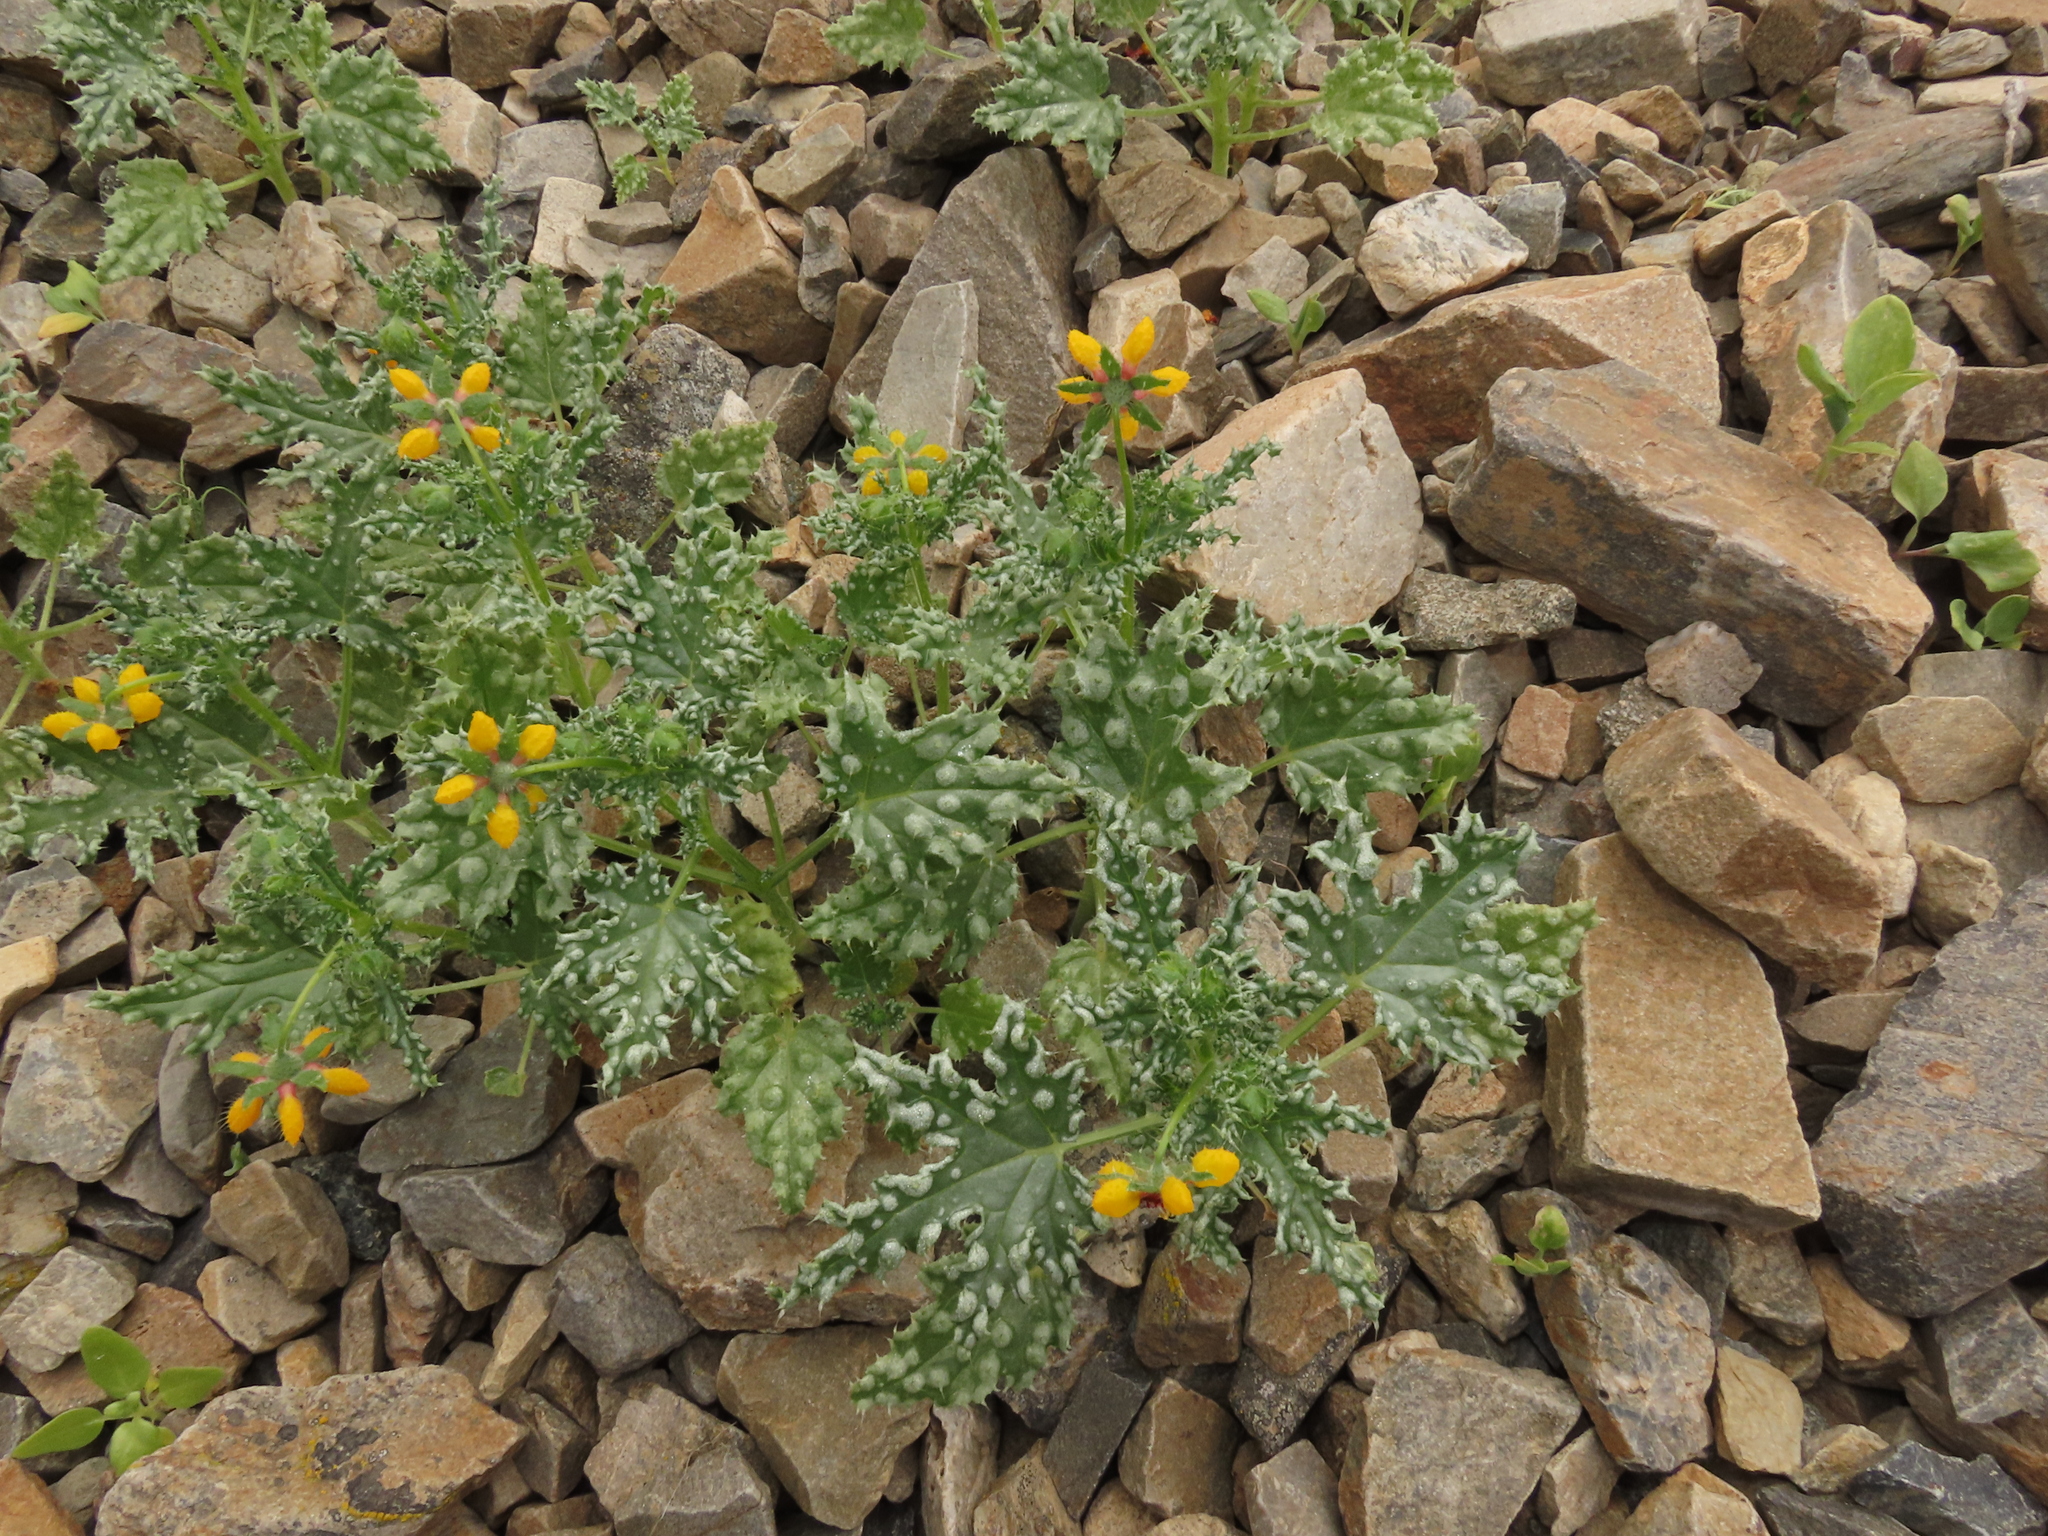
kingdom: Plantae
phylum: Tracheophyta
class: Magnoliopsida
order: Cornales
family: Loasaceae
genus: Loasa
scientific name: Loasa nitida
